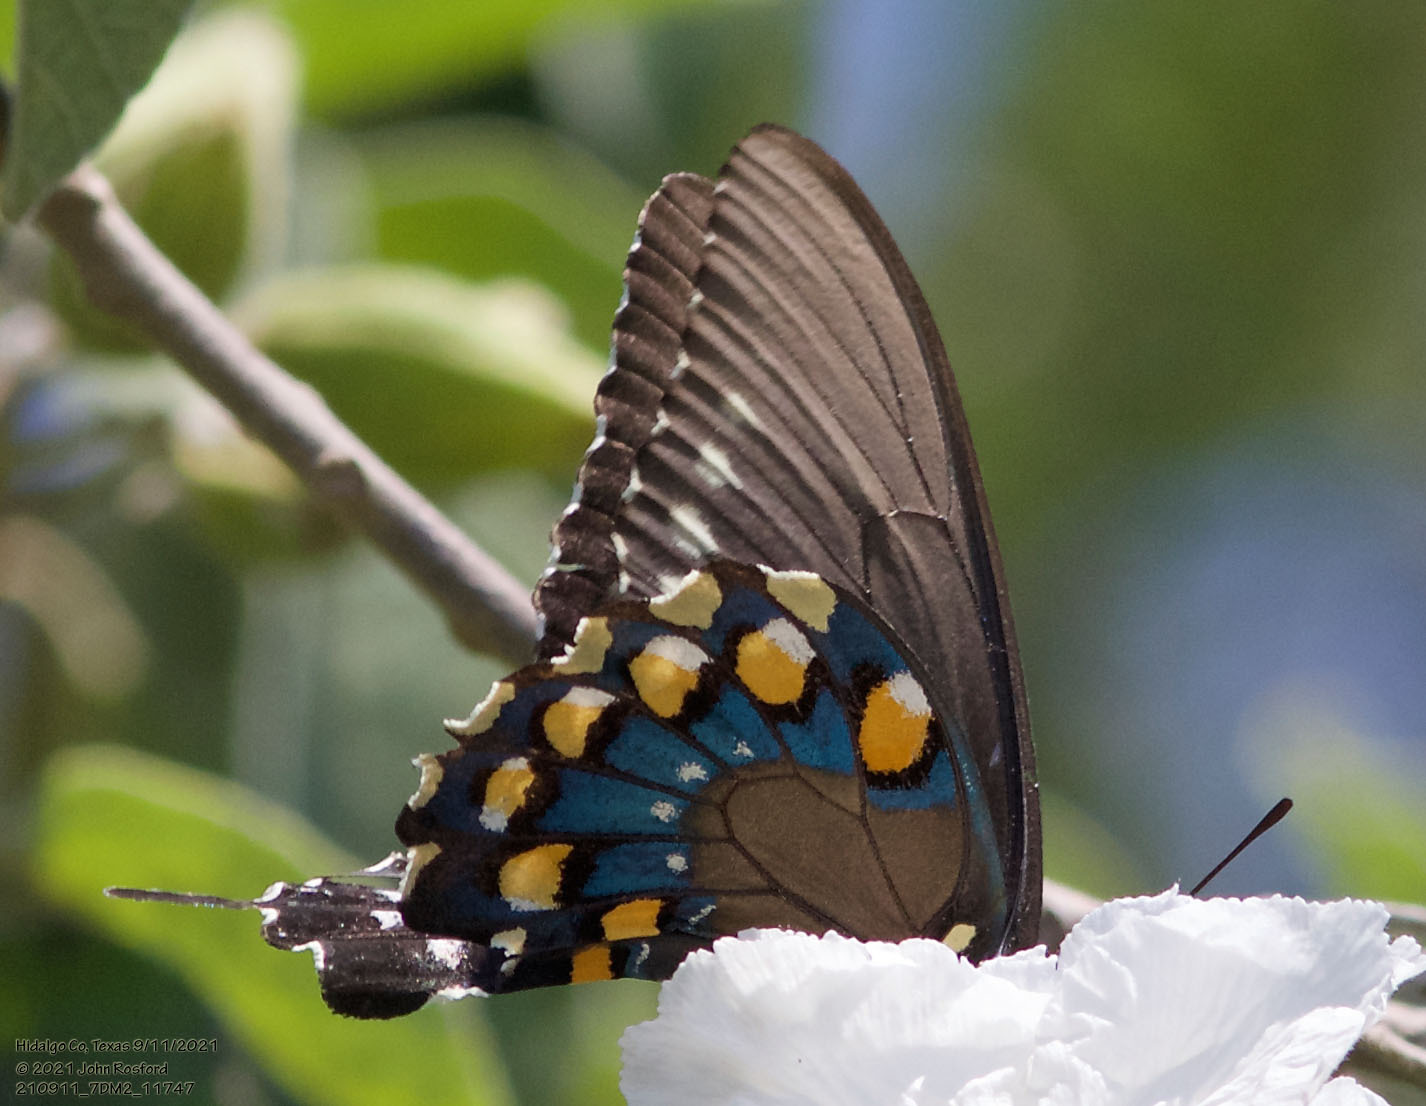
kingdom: Animalia
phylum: Arthropoda
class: Insecta
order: Lepidoptera
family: Papilionidae
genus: Battus
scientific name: Battus philenor
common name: Pipevine swallowtail
